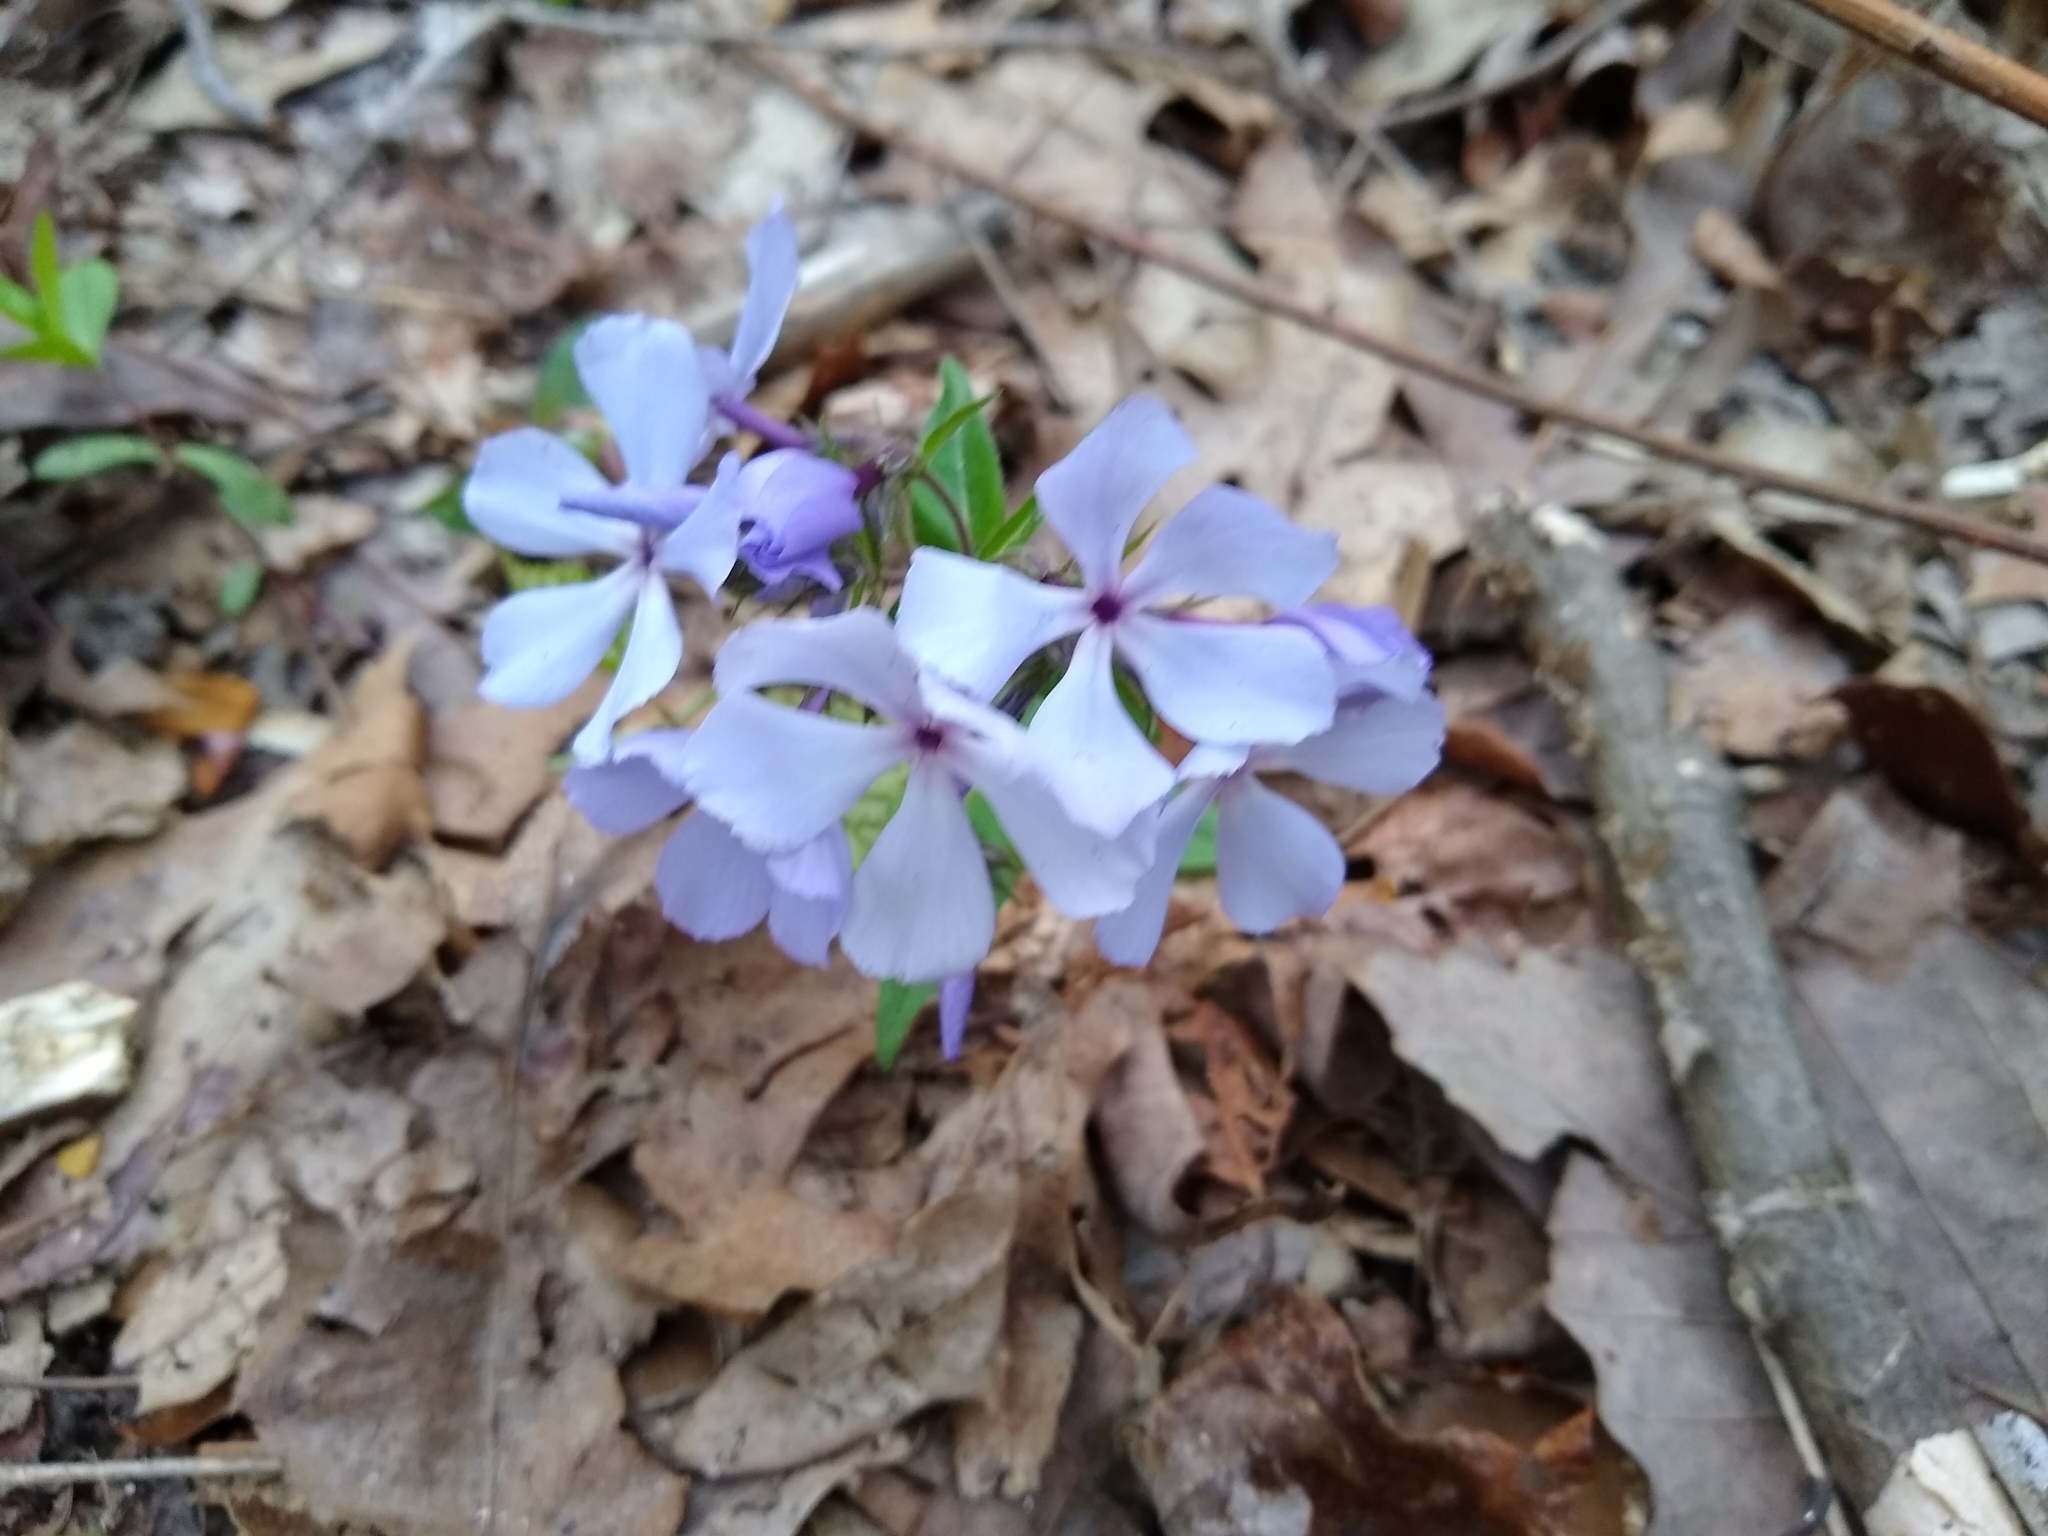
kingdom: Plantae
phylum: Tracheophyta
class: Magnoliopsida
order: Ericales
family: Polemoniaceae
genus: Phlox
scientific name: Phlox divaricata
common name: Blue phlox
